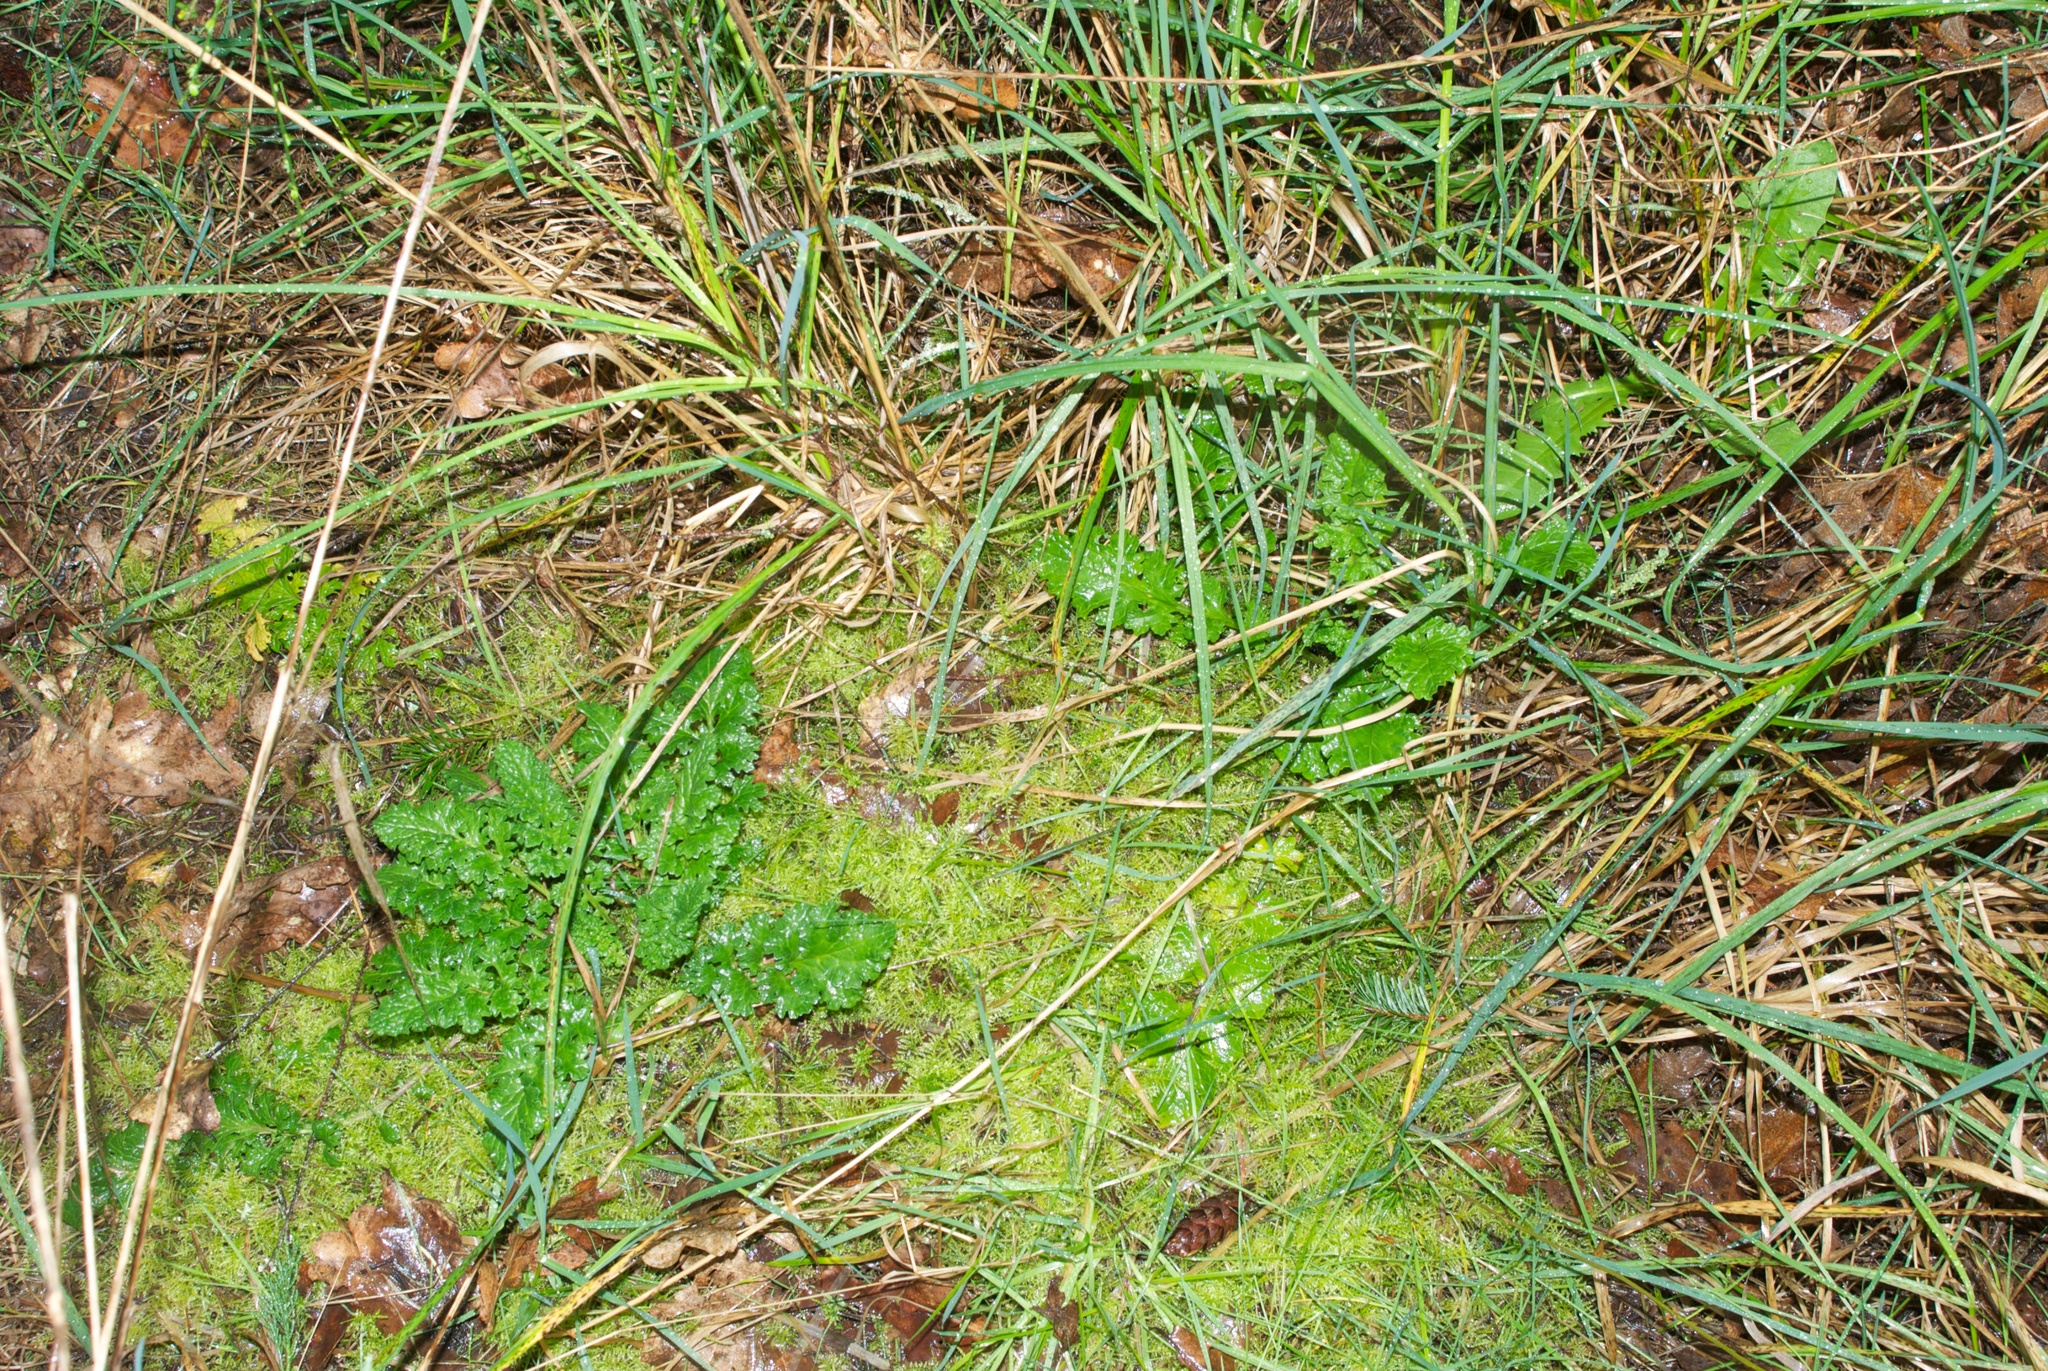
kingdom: Plantae
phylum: Tracheophyta
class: Magnoliopsida
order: Asterales
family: Asteraceae
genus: Jacobaea
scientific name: Jacobaea vulgaris
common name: Stinking willie
